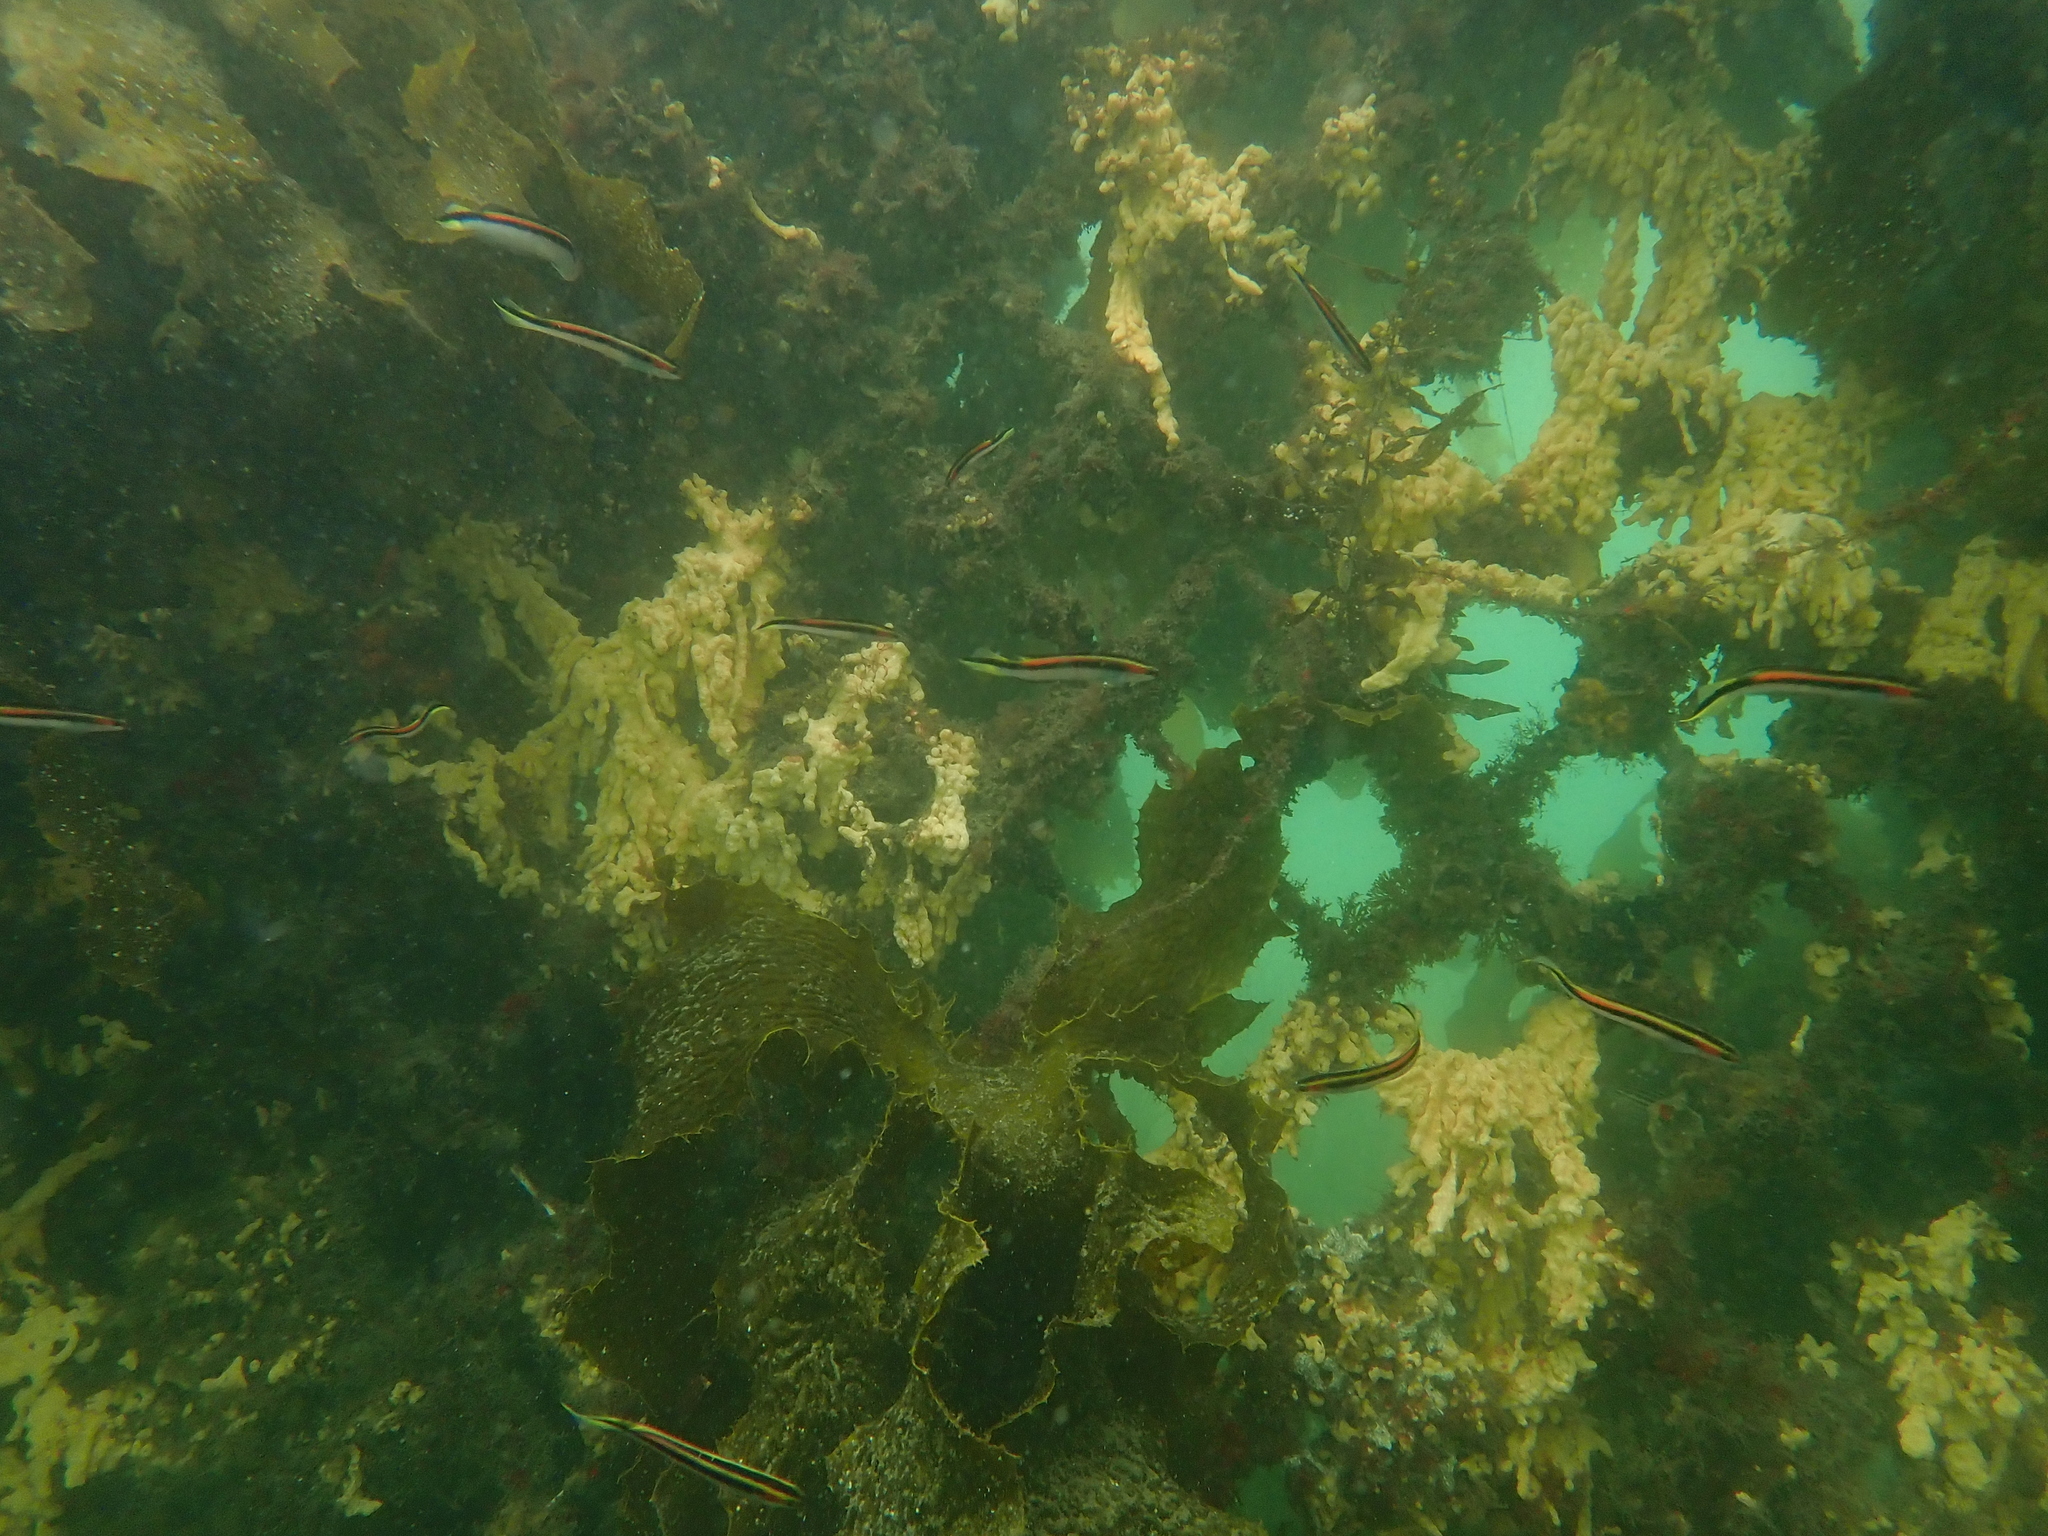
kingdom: Animalia
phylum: Chordata
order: Perciformes
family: Plesiopidae
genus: Trachinops
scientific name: Trachinops taeniatus
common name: Eastern hulafish
